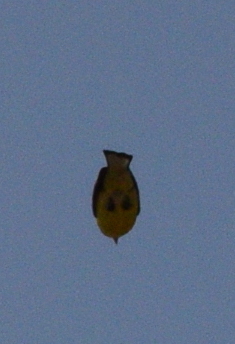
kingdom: Animalia
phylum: Chordata
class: Aves
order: Passeriformes
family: Fringillidae
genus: Spinus
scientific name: Spinus psaltria
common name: Lesser goldfinch
